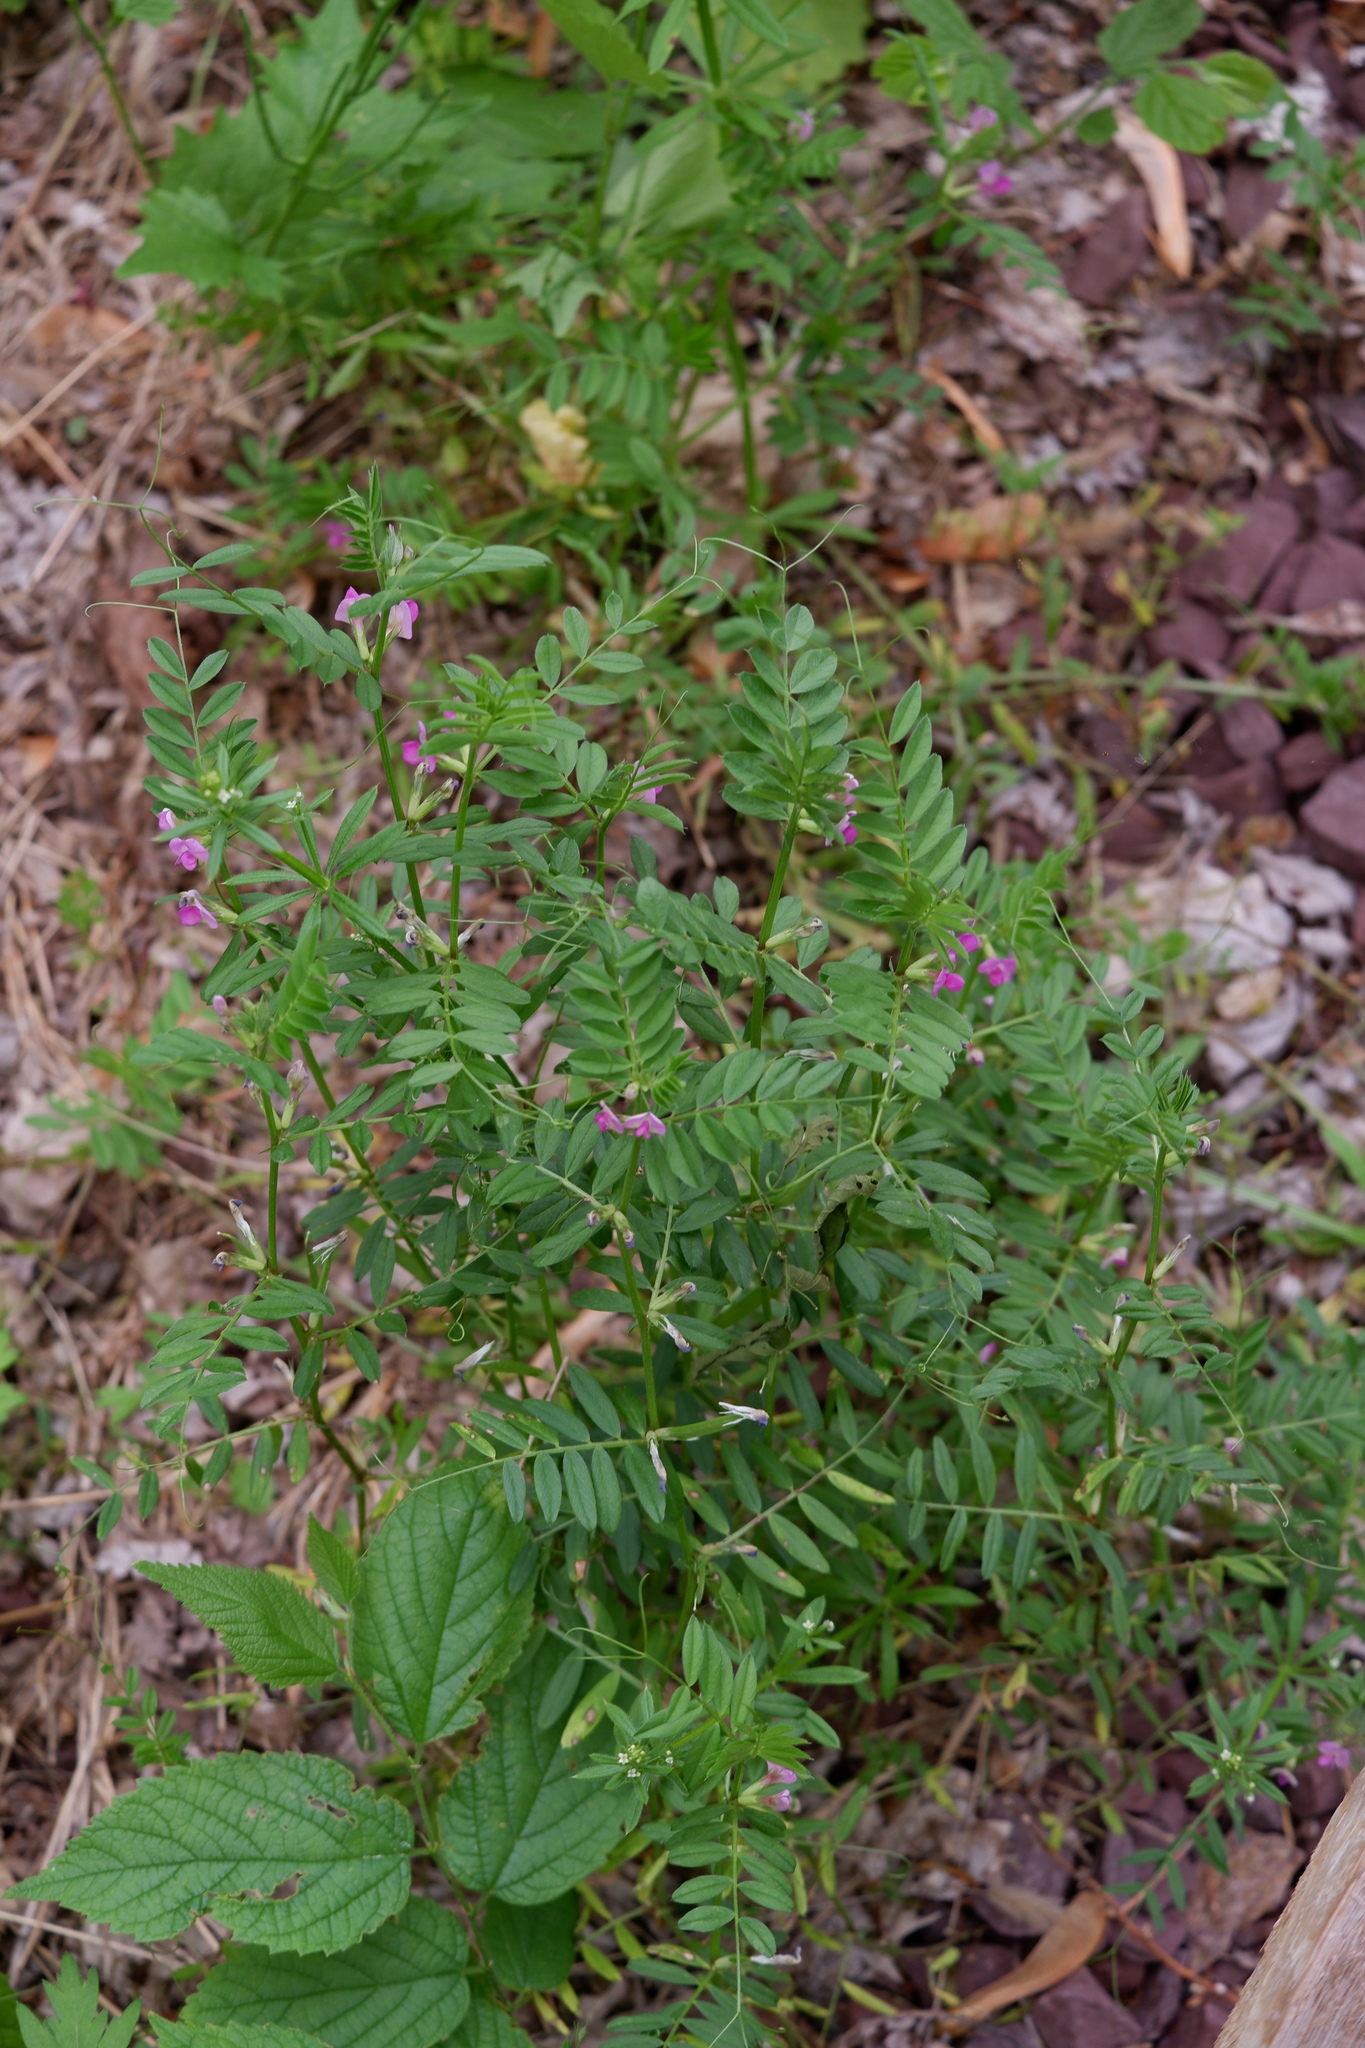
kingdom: Plantae
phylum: Tracheophyta
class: Magnoliopsida
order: Fabales
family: Fabaceae
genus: Vicia
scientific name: Vicia sativa
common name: Garden vetch
